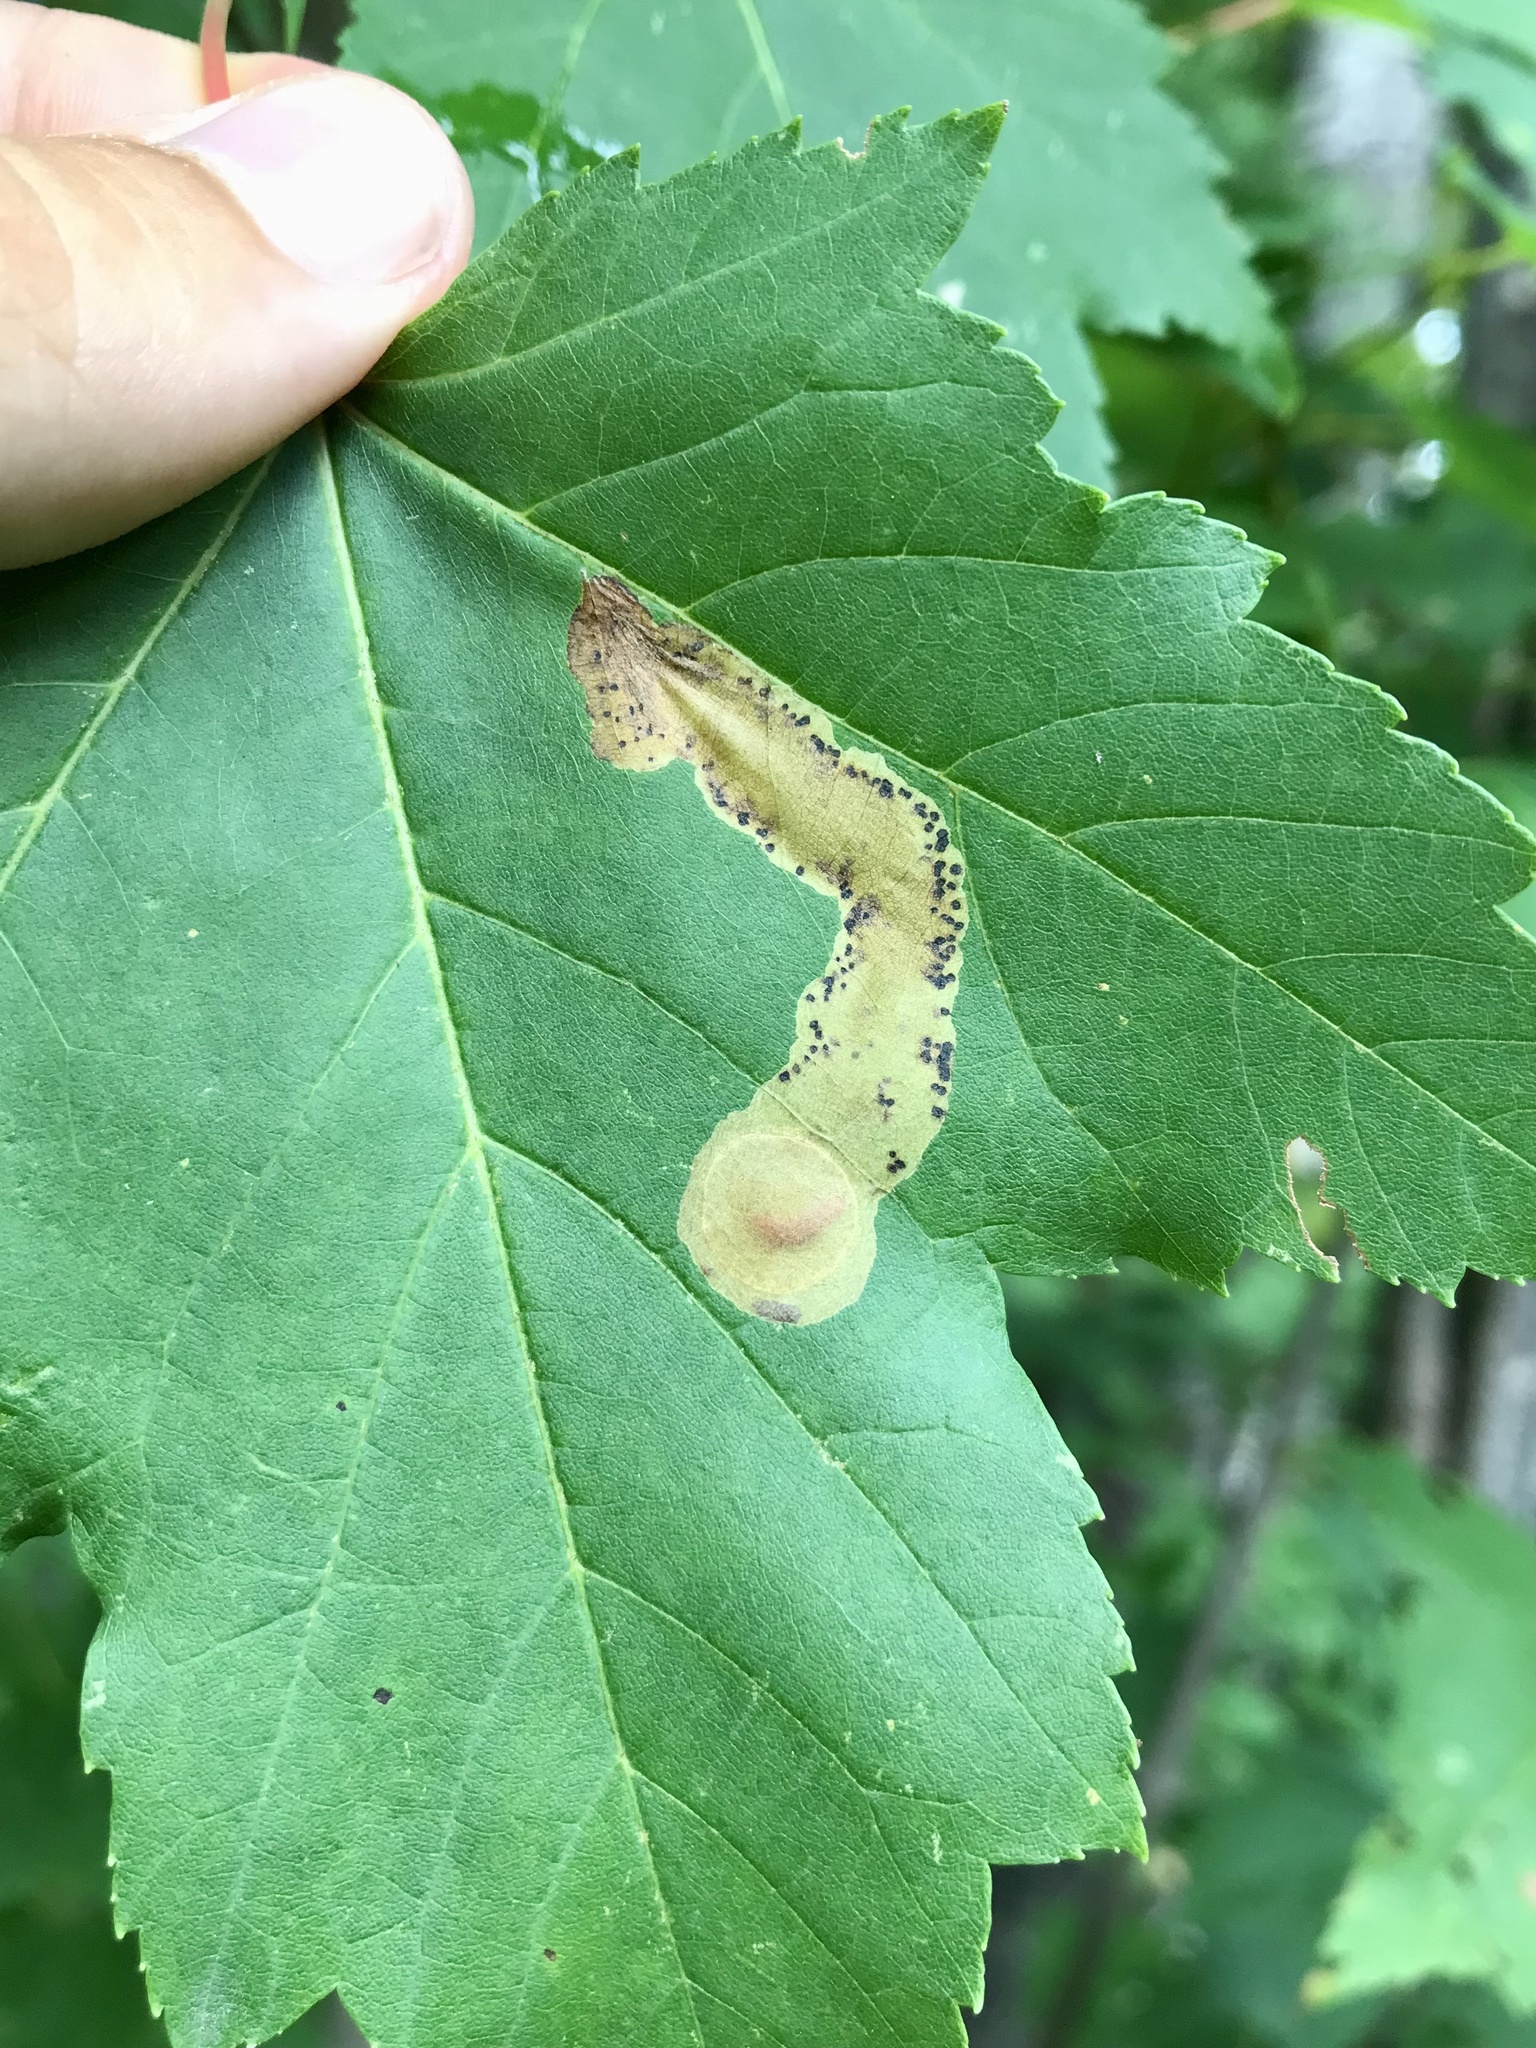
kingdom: Animalia
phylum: Arthropoda
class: Insecta
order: Lepidoptera
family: Gracillariidae
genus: Cameraria
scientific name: Cameraria aceriella
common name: Maple leafblotch miner
